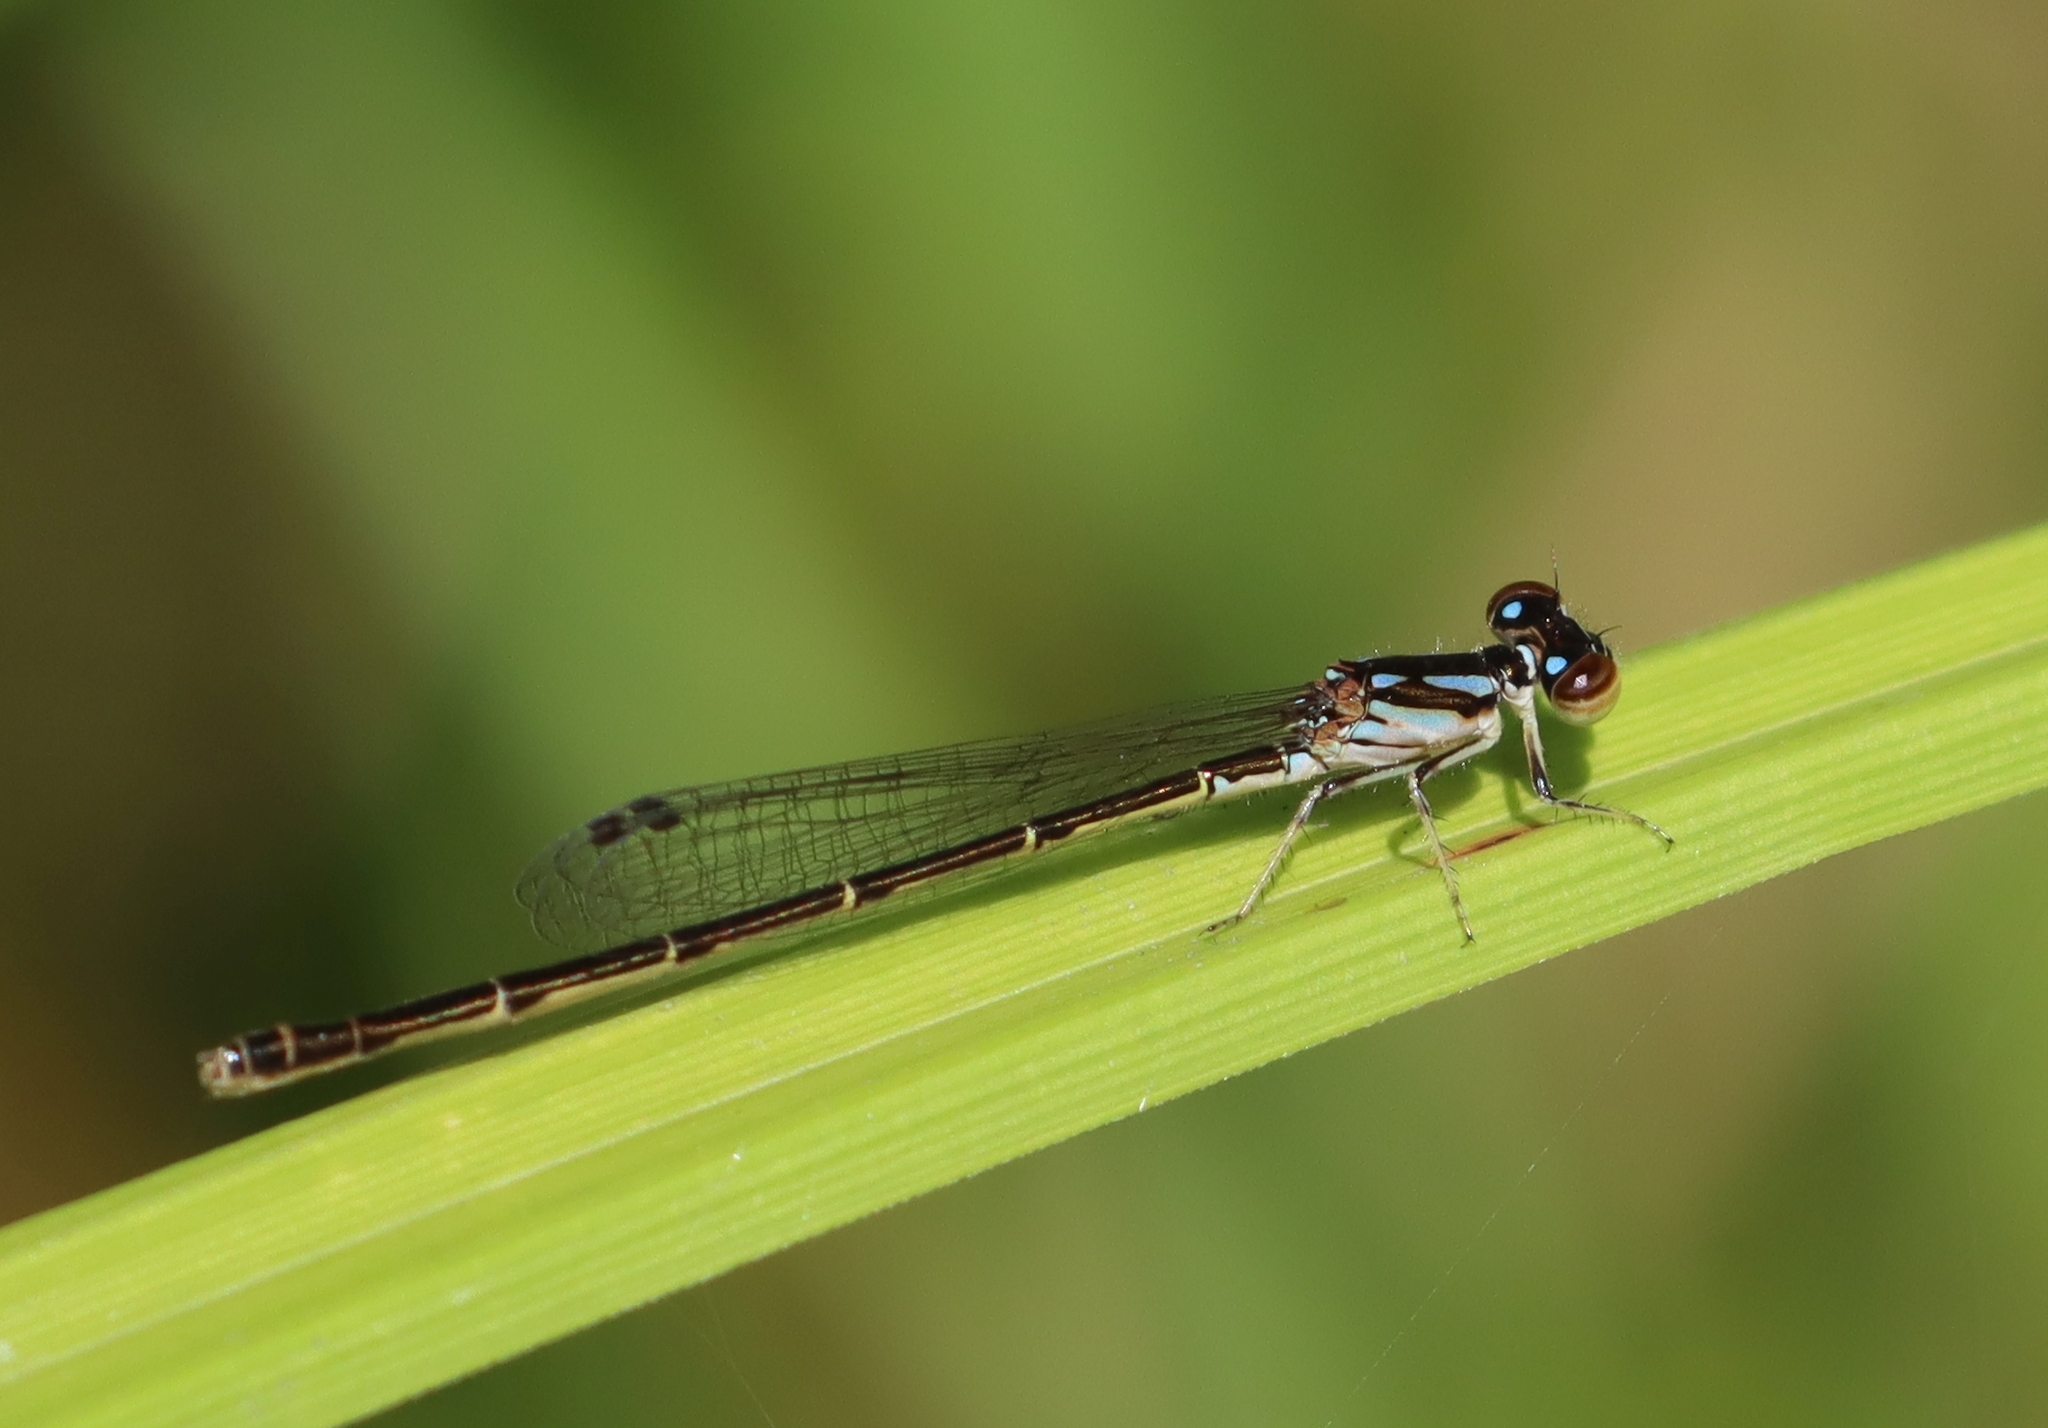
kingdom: Animalia
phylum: Arthropoda
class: Insecta
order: Odonata
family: Coenagrionidae
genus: Ischnura
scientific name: Ischnura posita
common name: Fragile forktail
